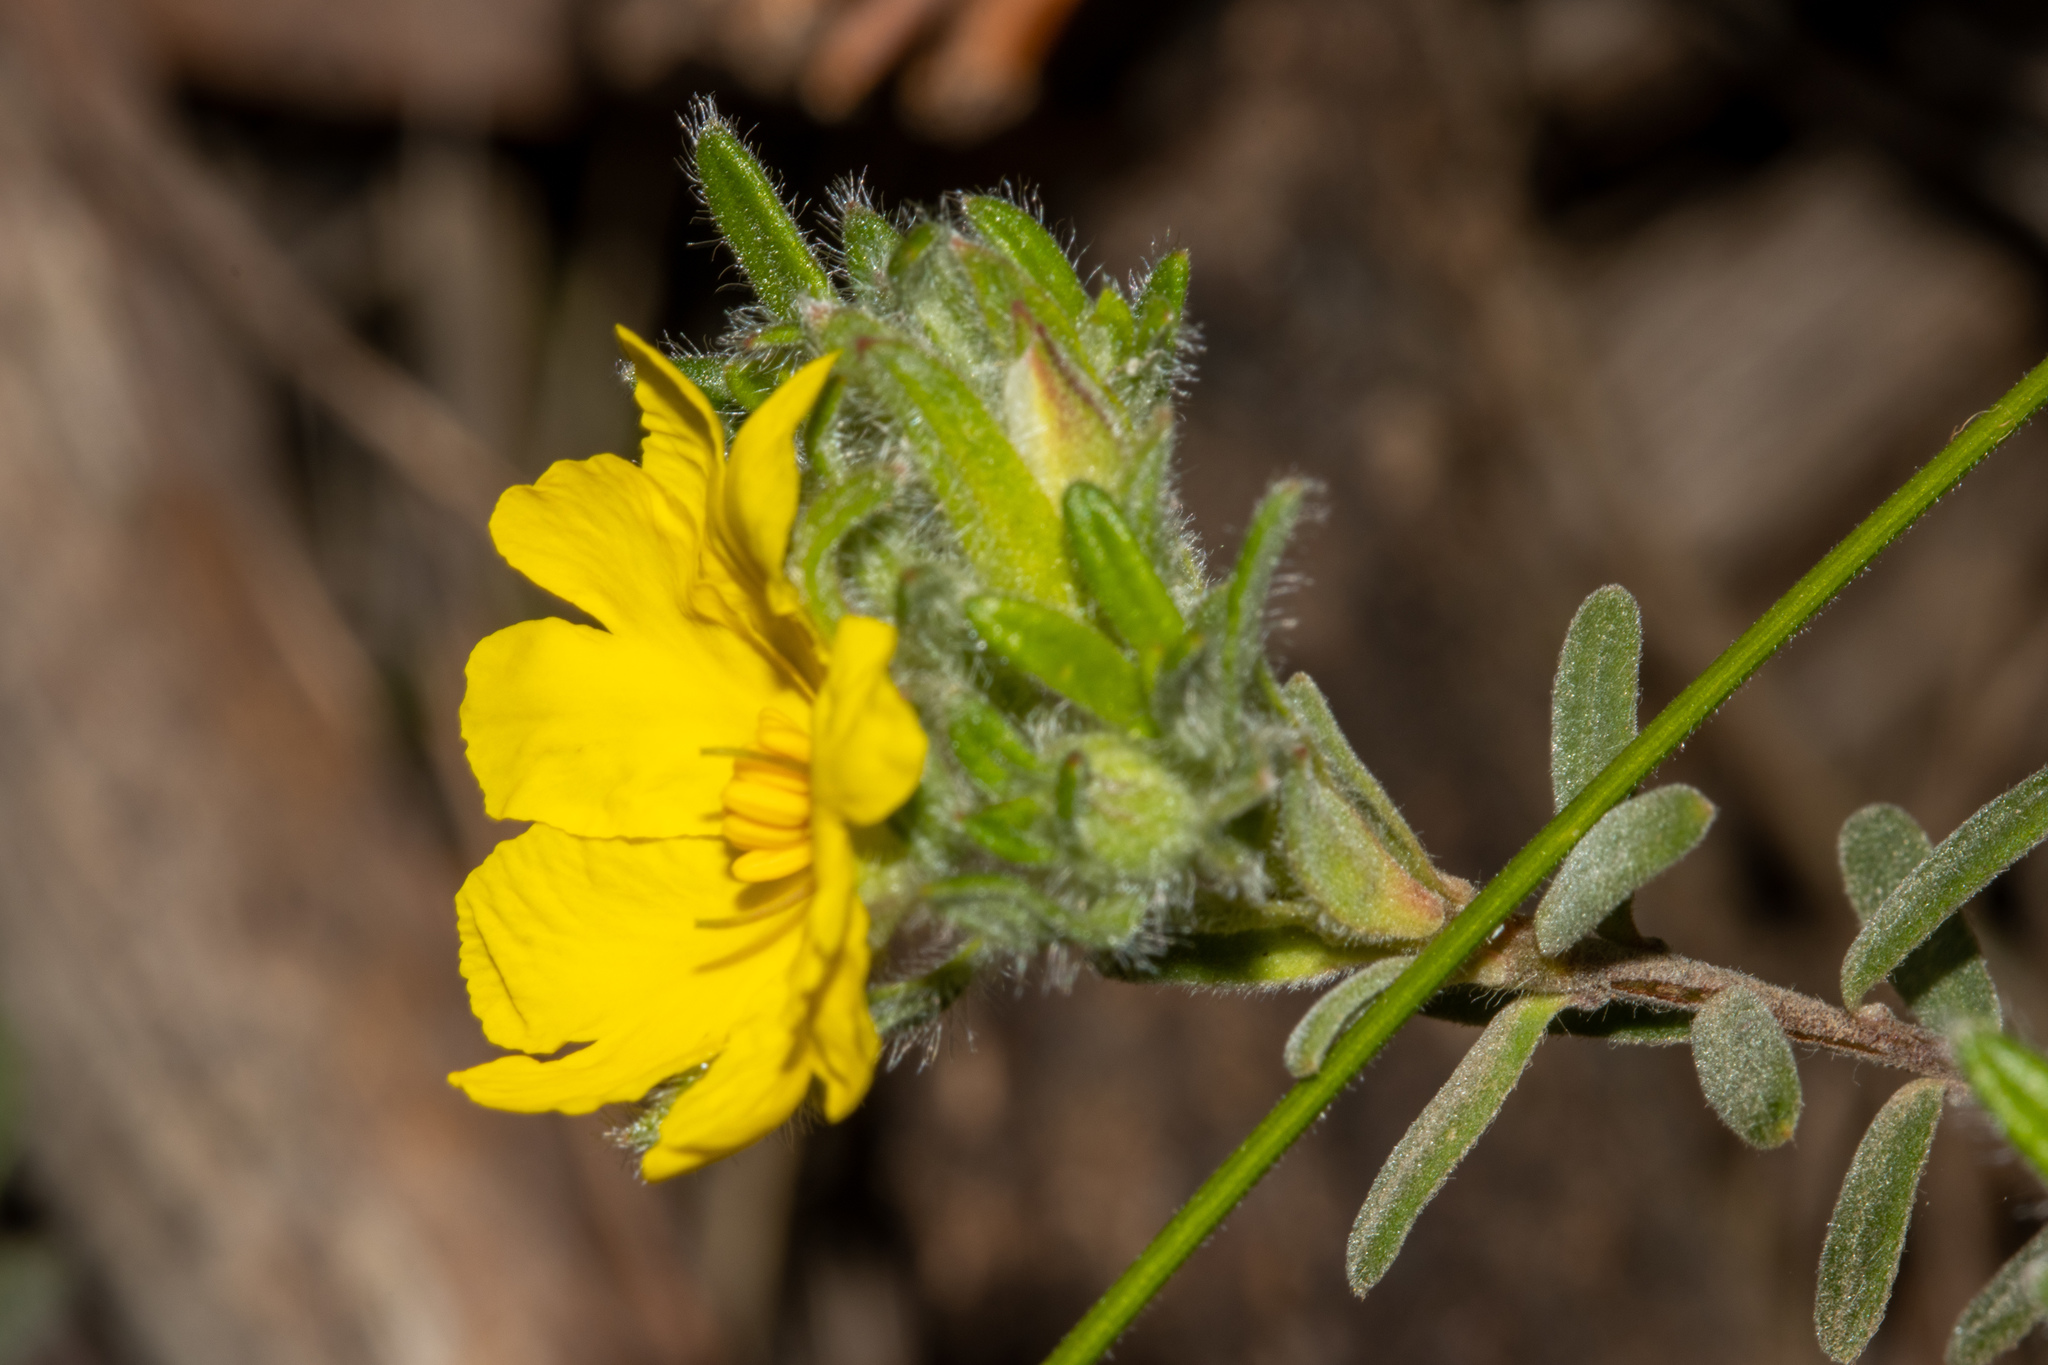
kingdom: Plantae
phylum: Tracheophyta
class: Magnoliopsida
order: Dilleniales
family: Dilleniaceae
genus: Hibbertia
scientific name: Hibbertia crinita
